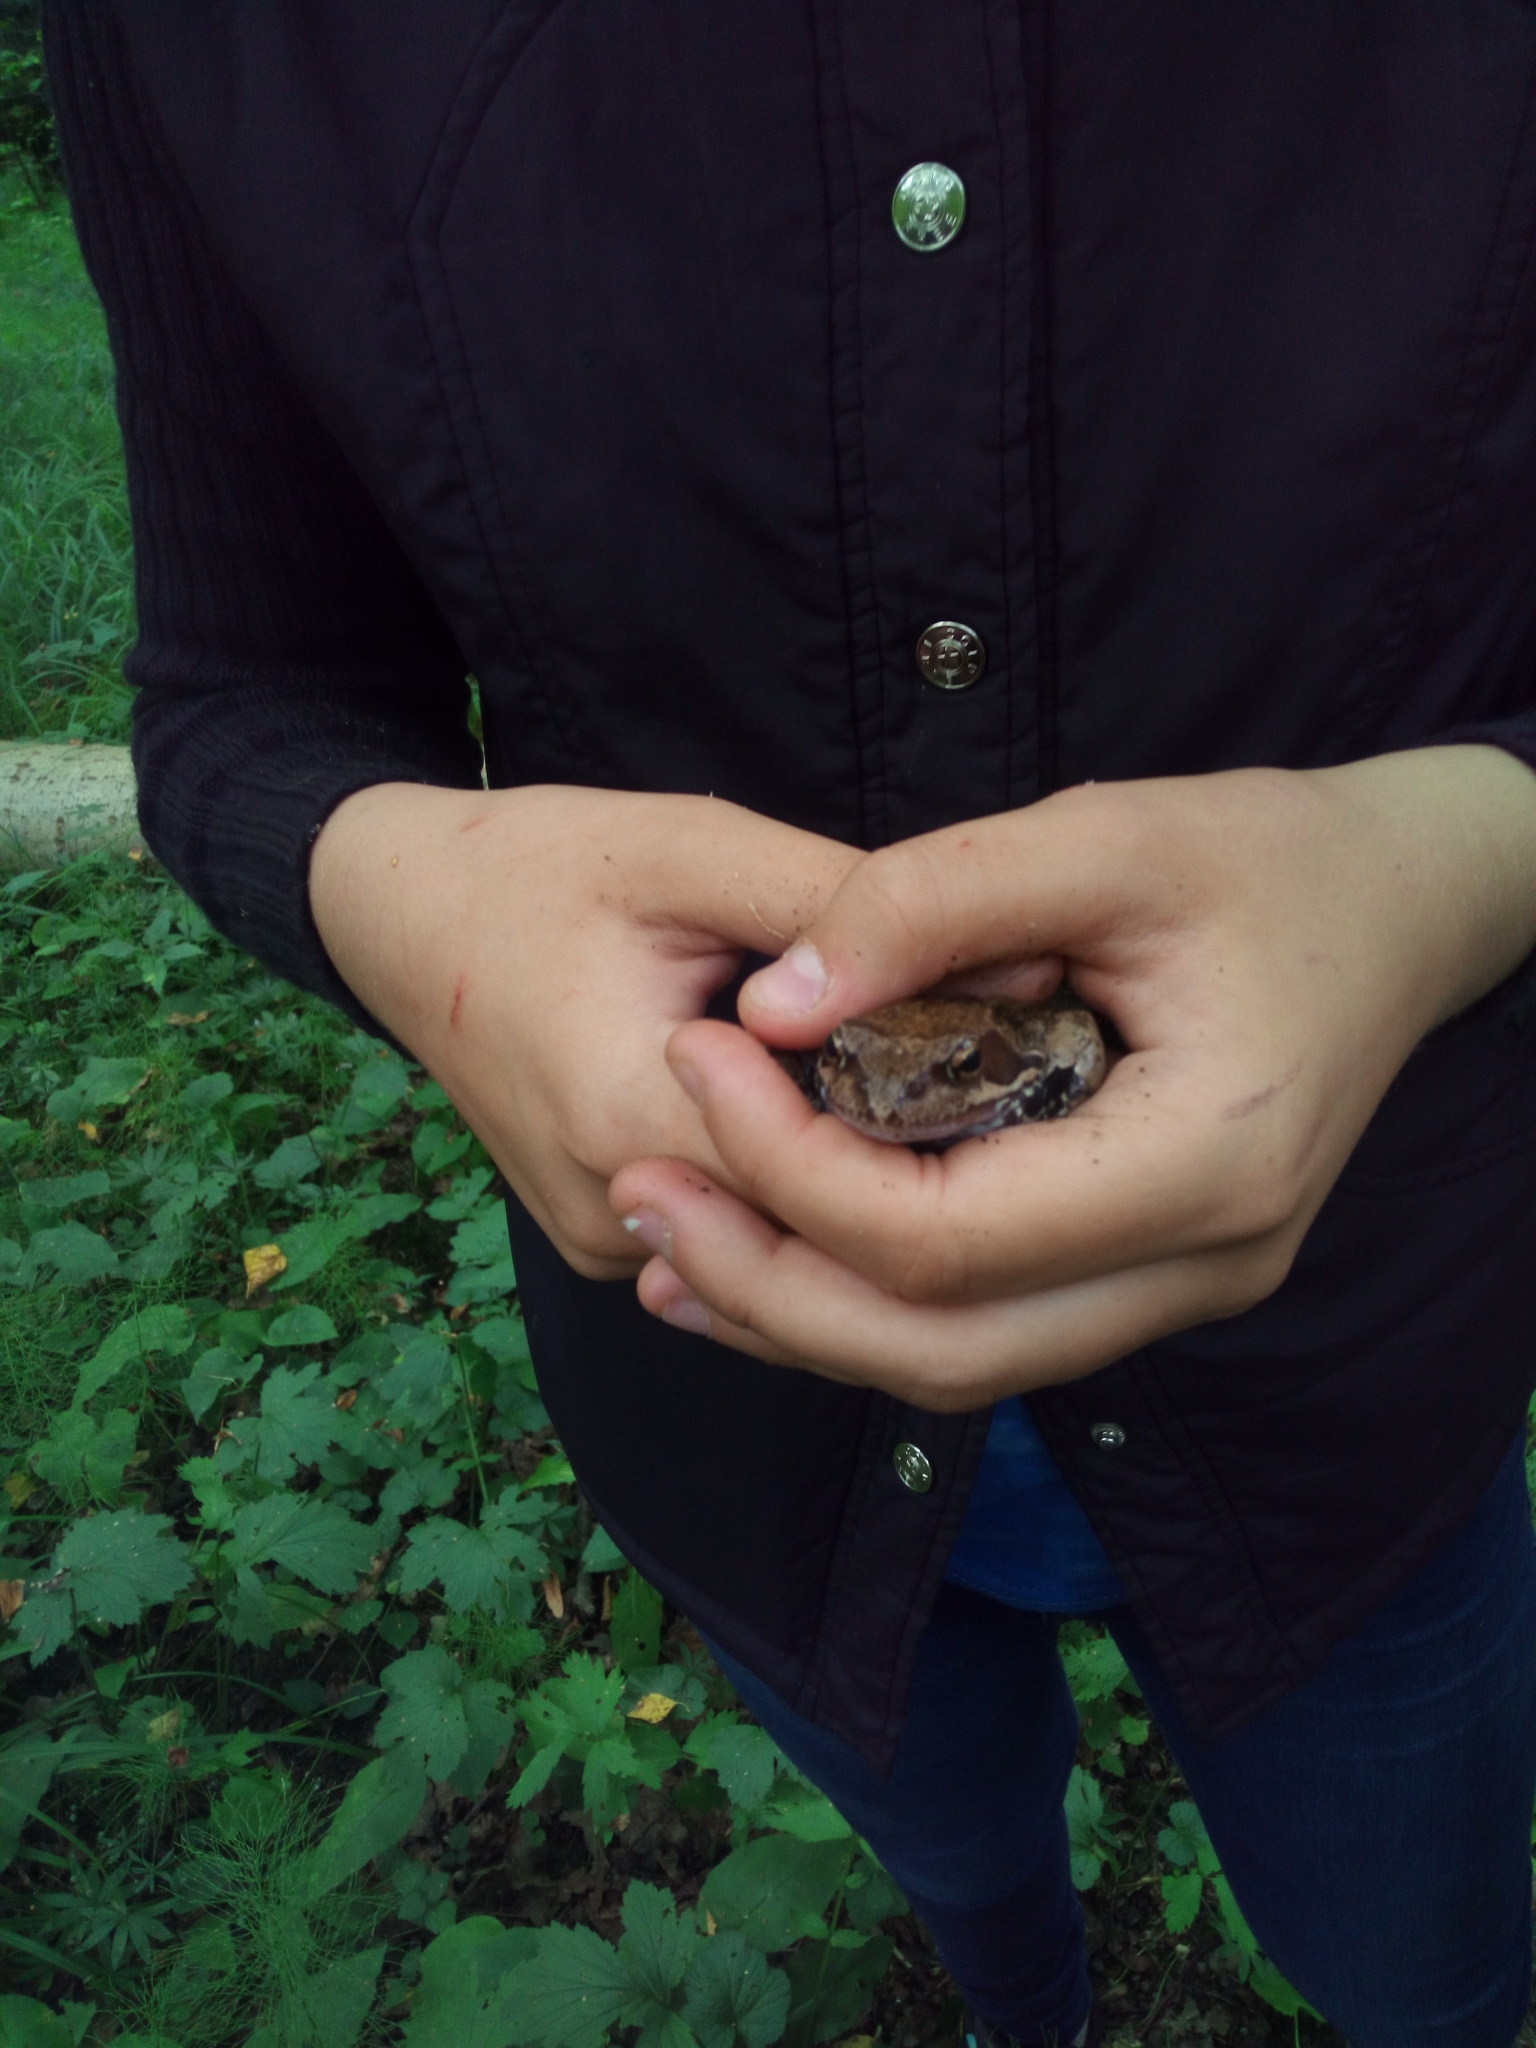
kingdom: Animalia
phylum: Chordata
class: Amphibia
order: Anura
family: Ranidae
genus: Rana
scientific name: Rana temporaria
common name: Common frog
